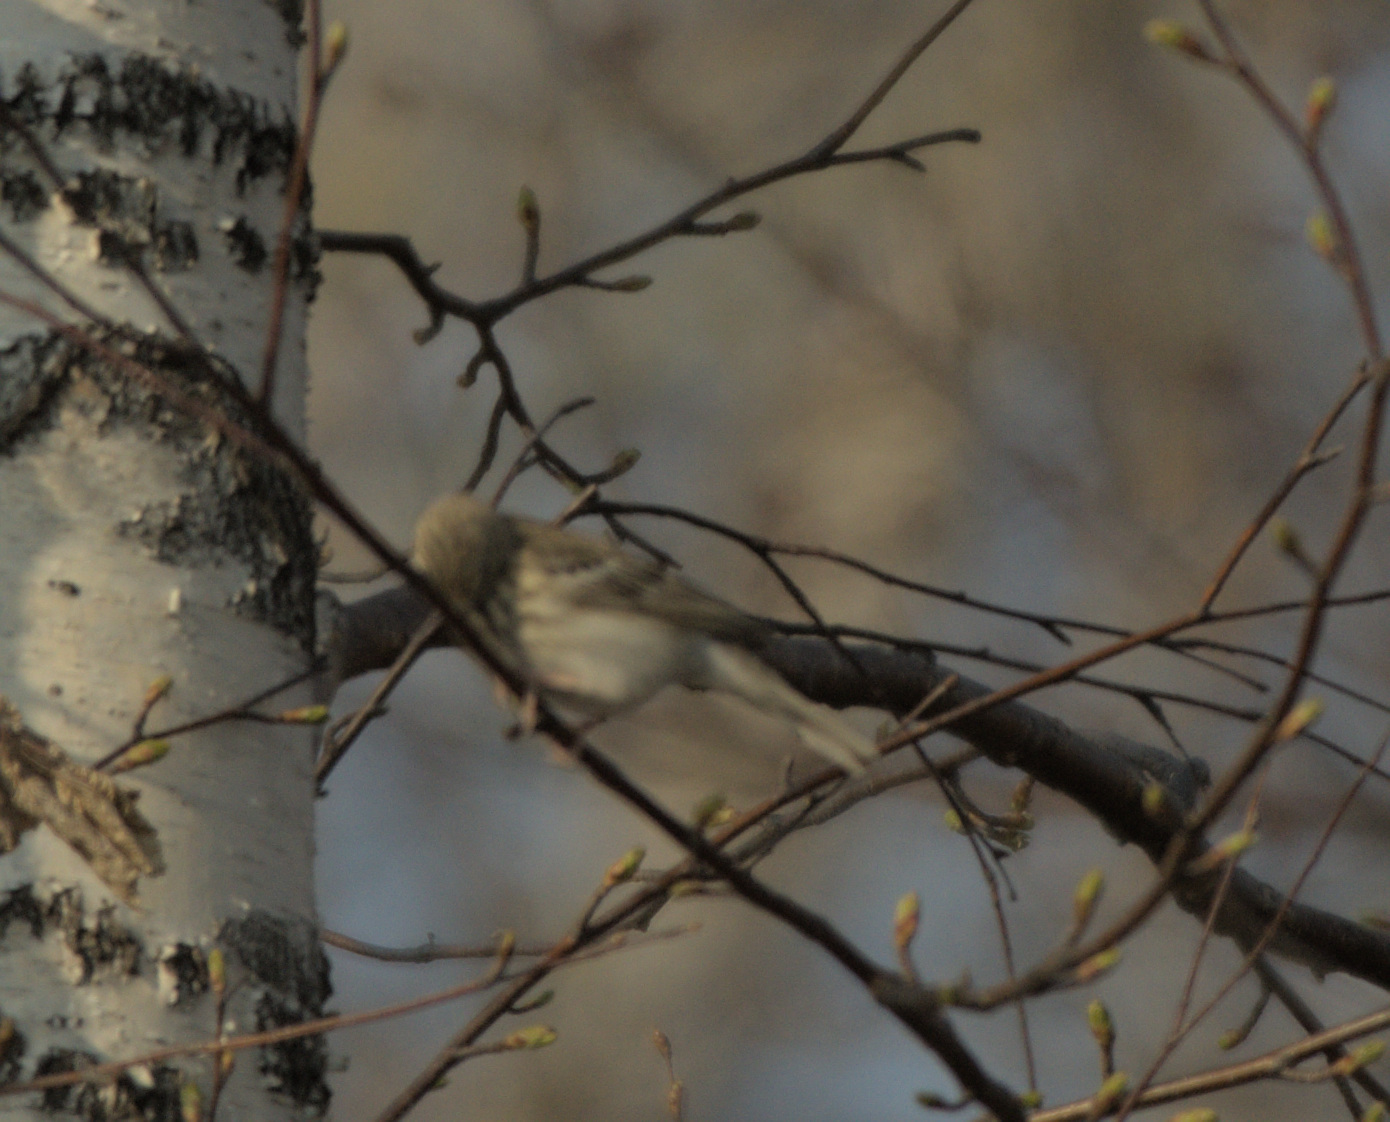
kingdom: Animalia
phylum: Chordata
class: Aves
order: Passeriformes
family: Motacillidae
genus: Anthus
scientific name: Anthus trivialis
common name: Tree pipit
